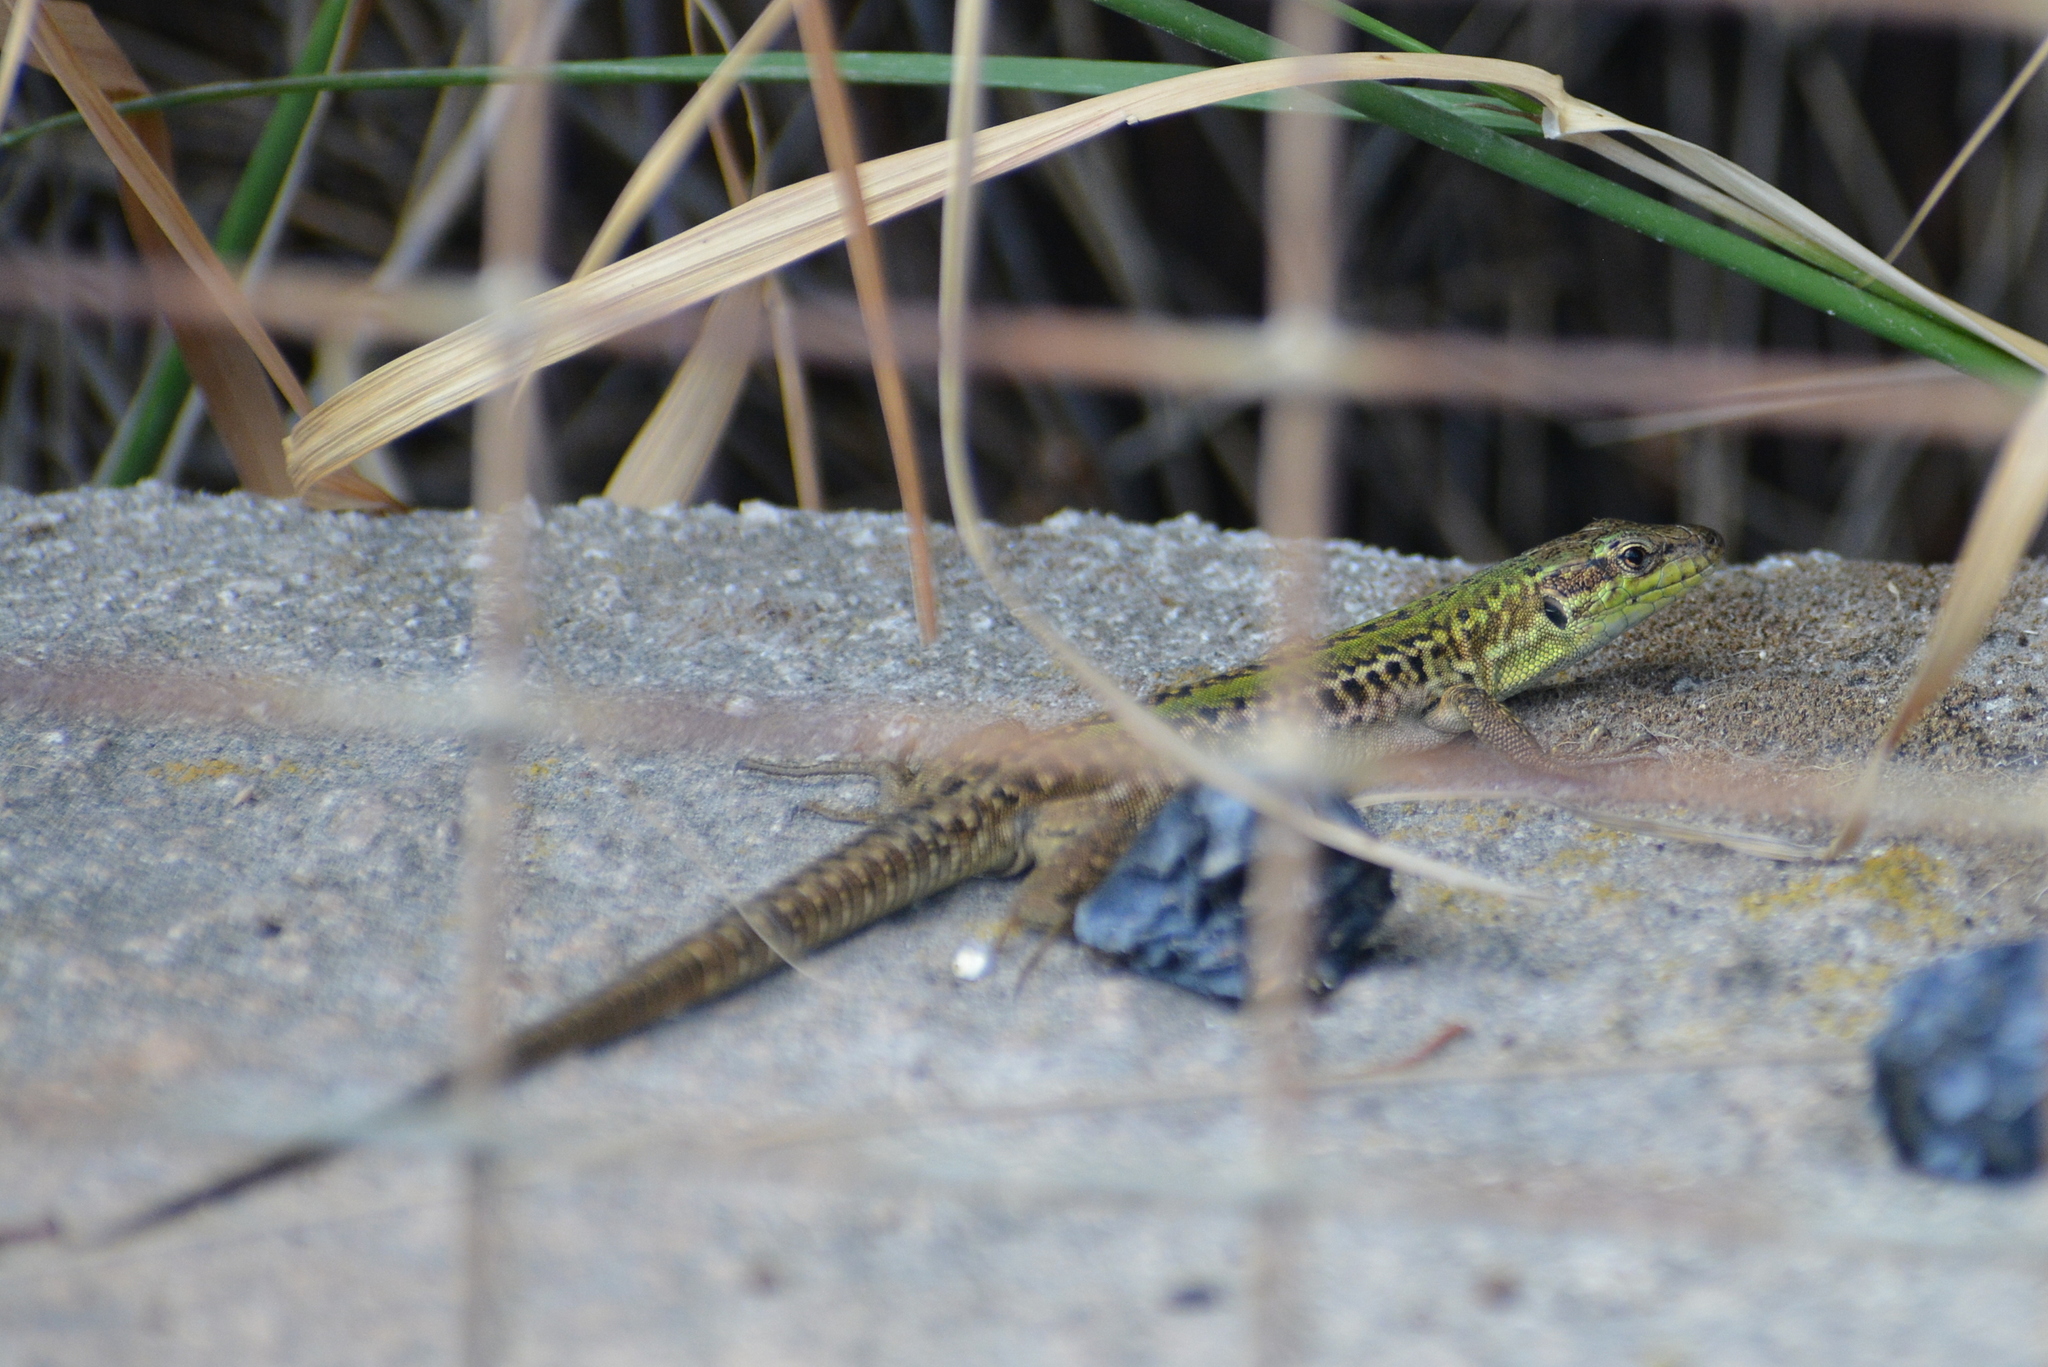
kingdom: Animalia
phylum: Chordata
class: Squamata
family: Lacertidae
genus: Podarcis
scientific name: Podarcis siculus
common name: Italian wall lizard
